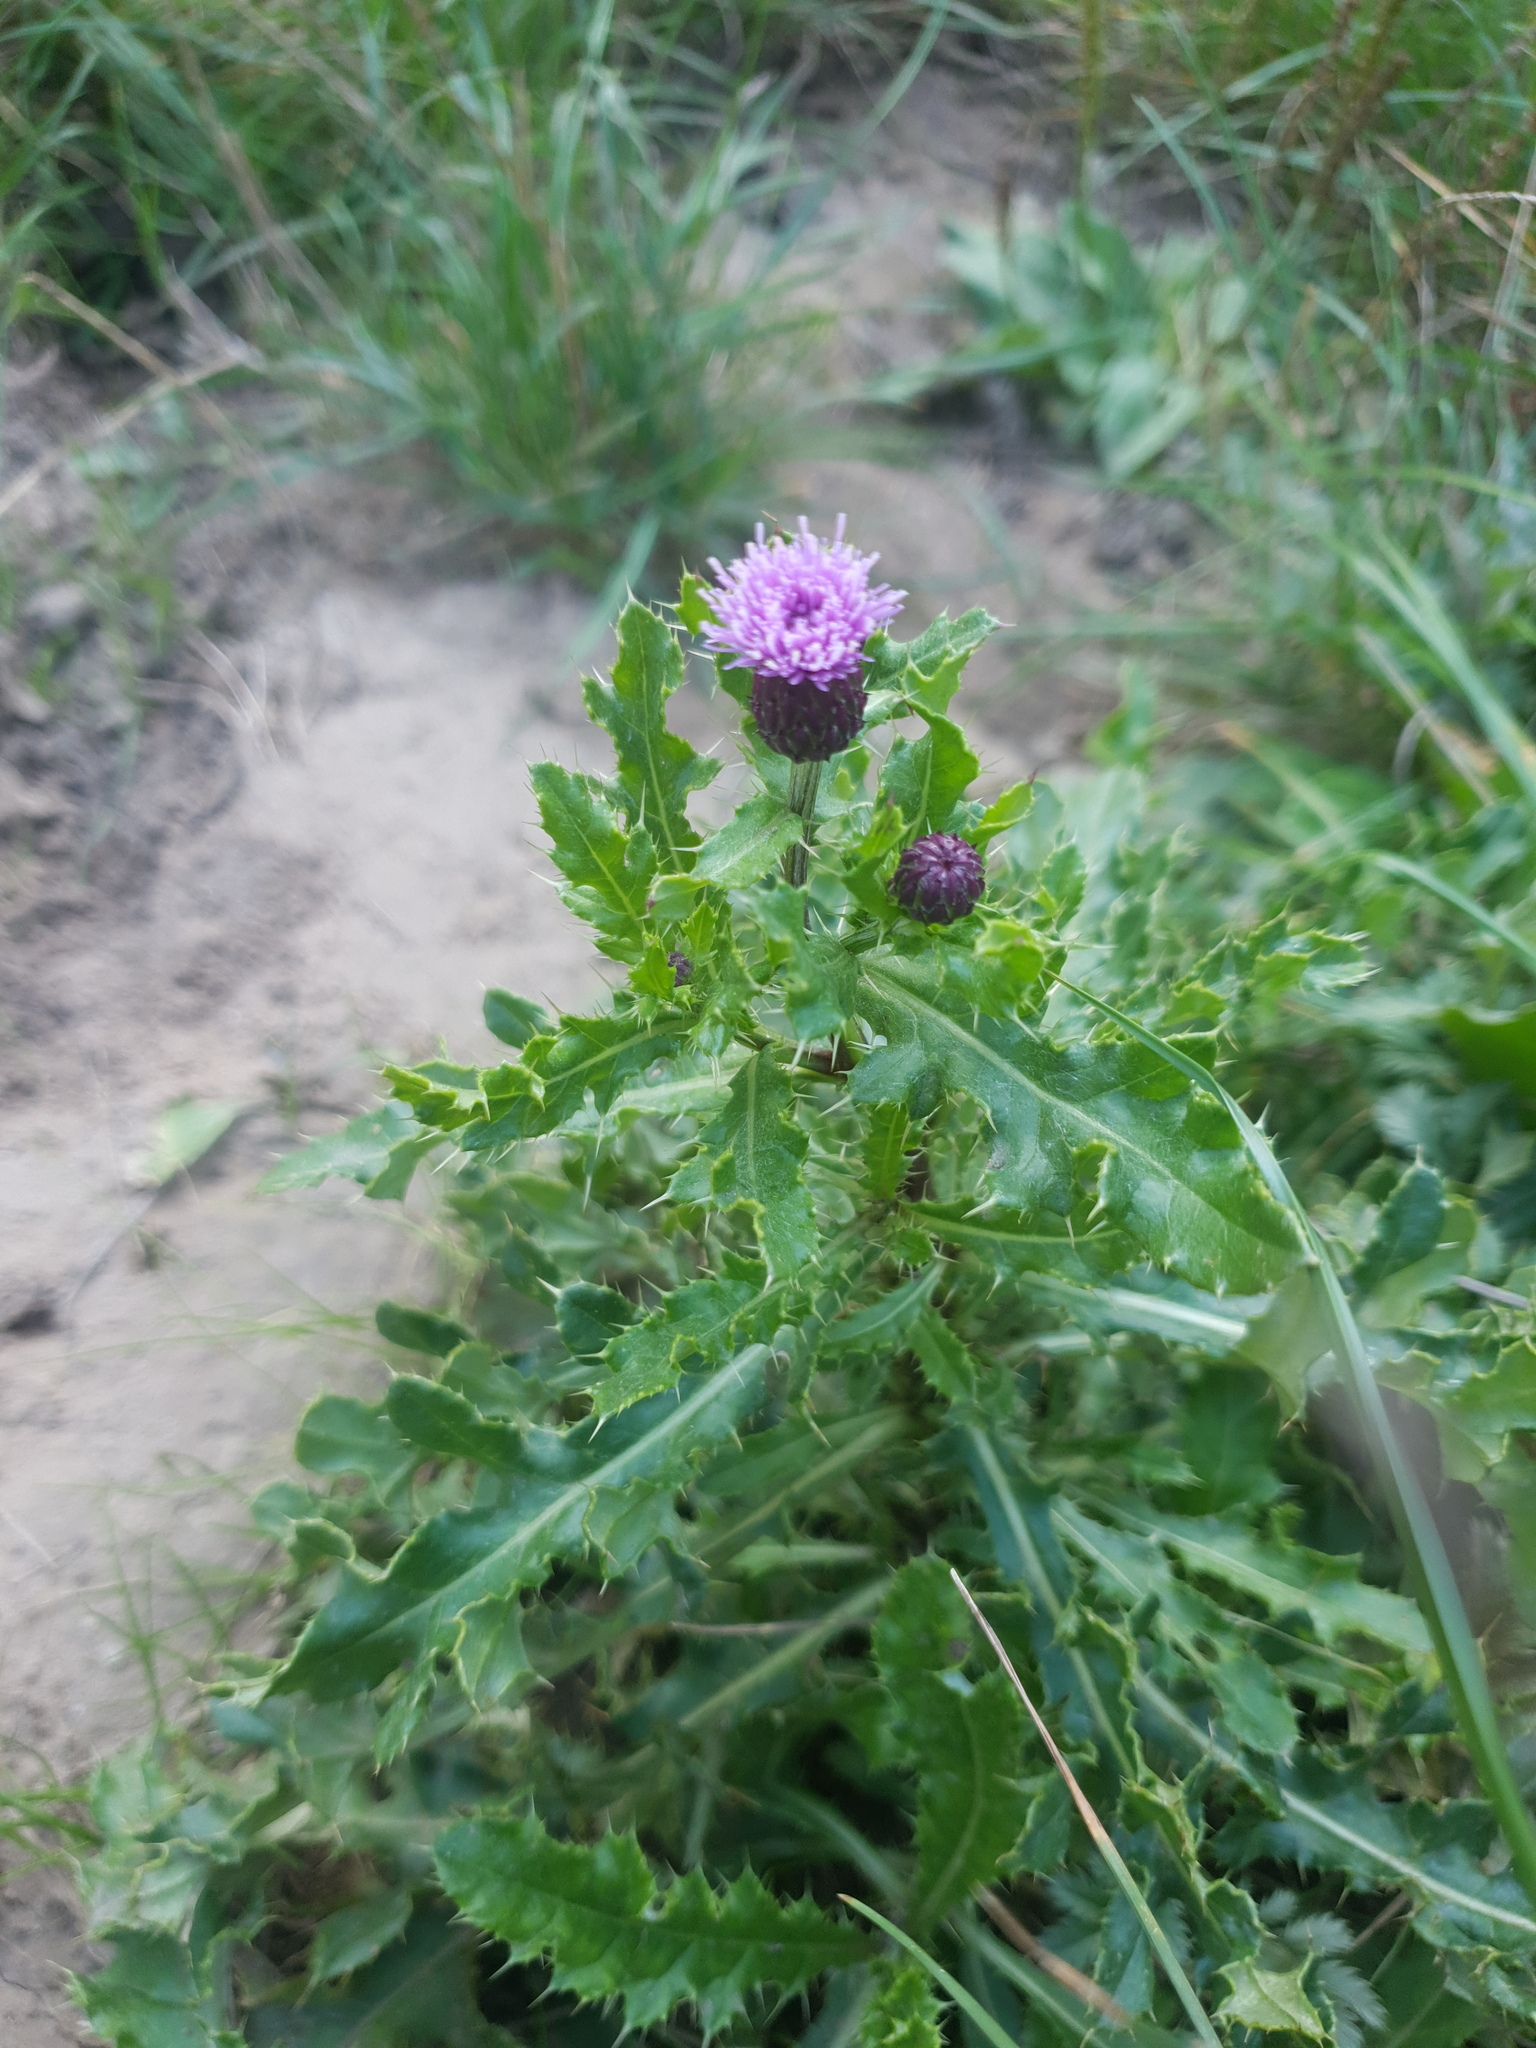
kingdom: Plantae
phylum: Tracheophyta
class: Magnoliopsida
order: Asterales
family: Asteraceae
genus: Cirsium
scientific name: Cirsium arvense
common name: Creeping thistle
